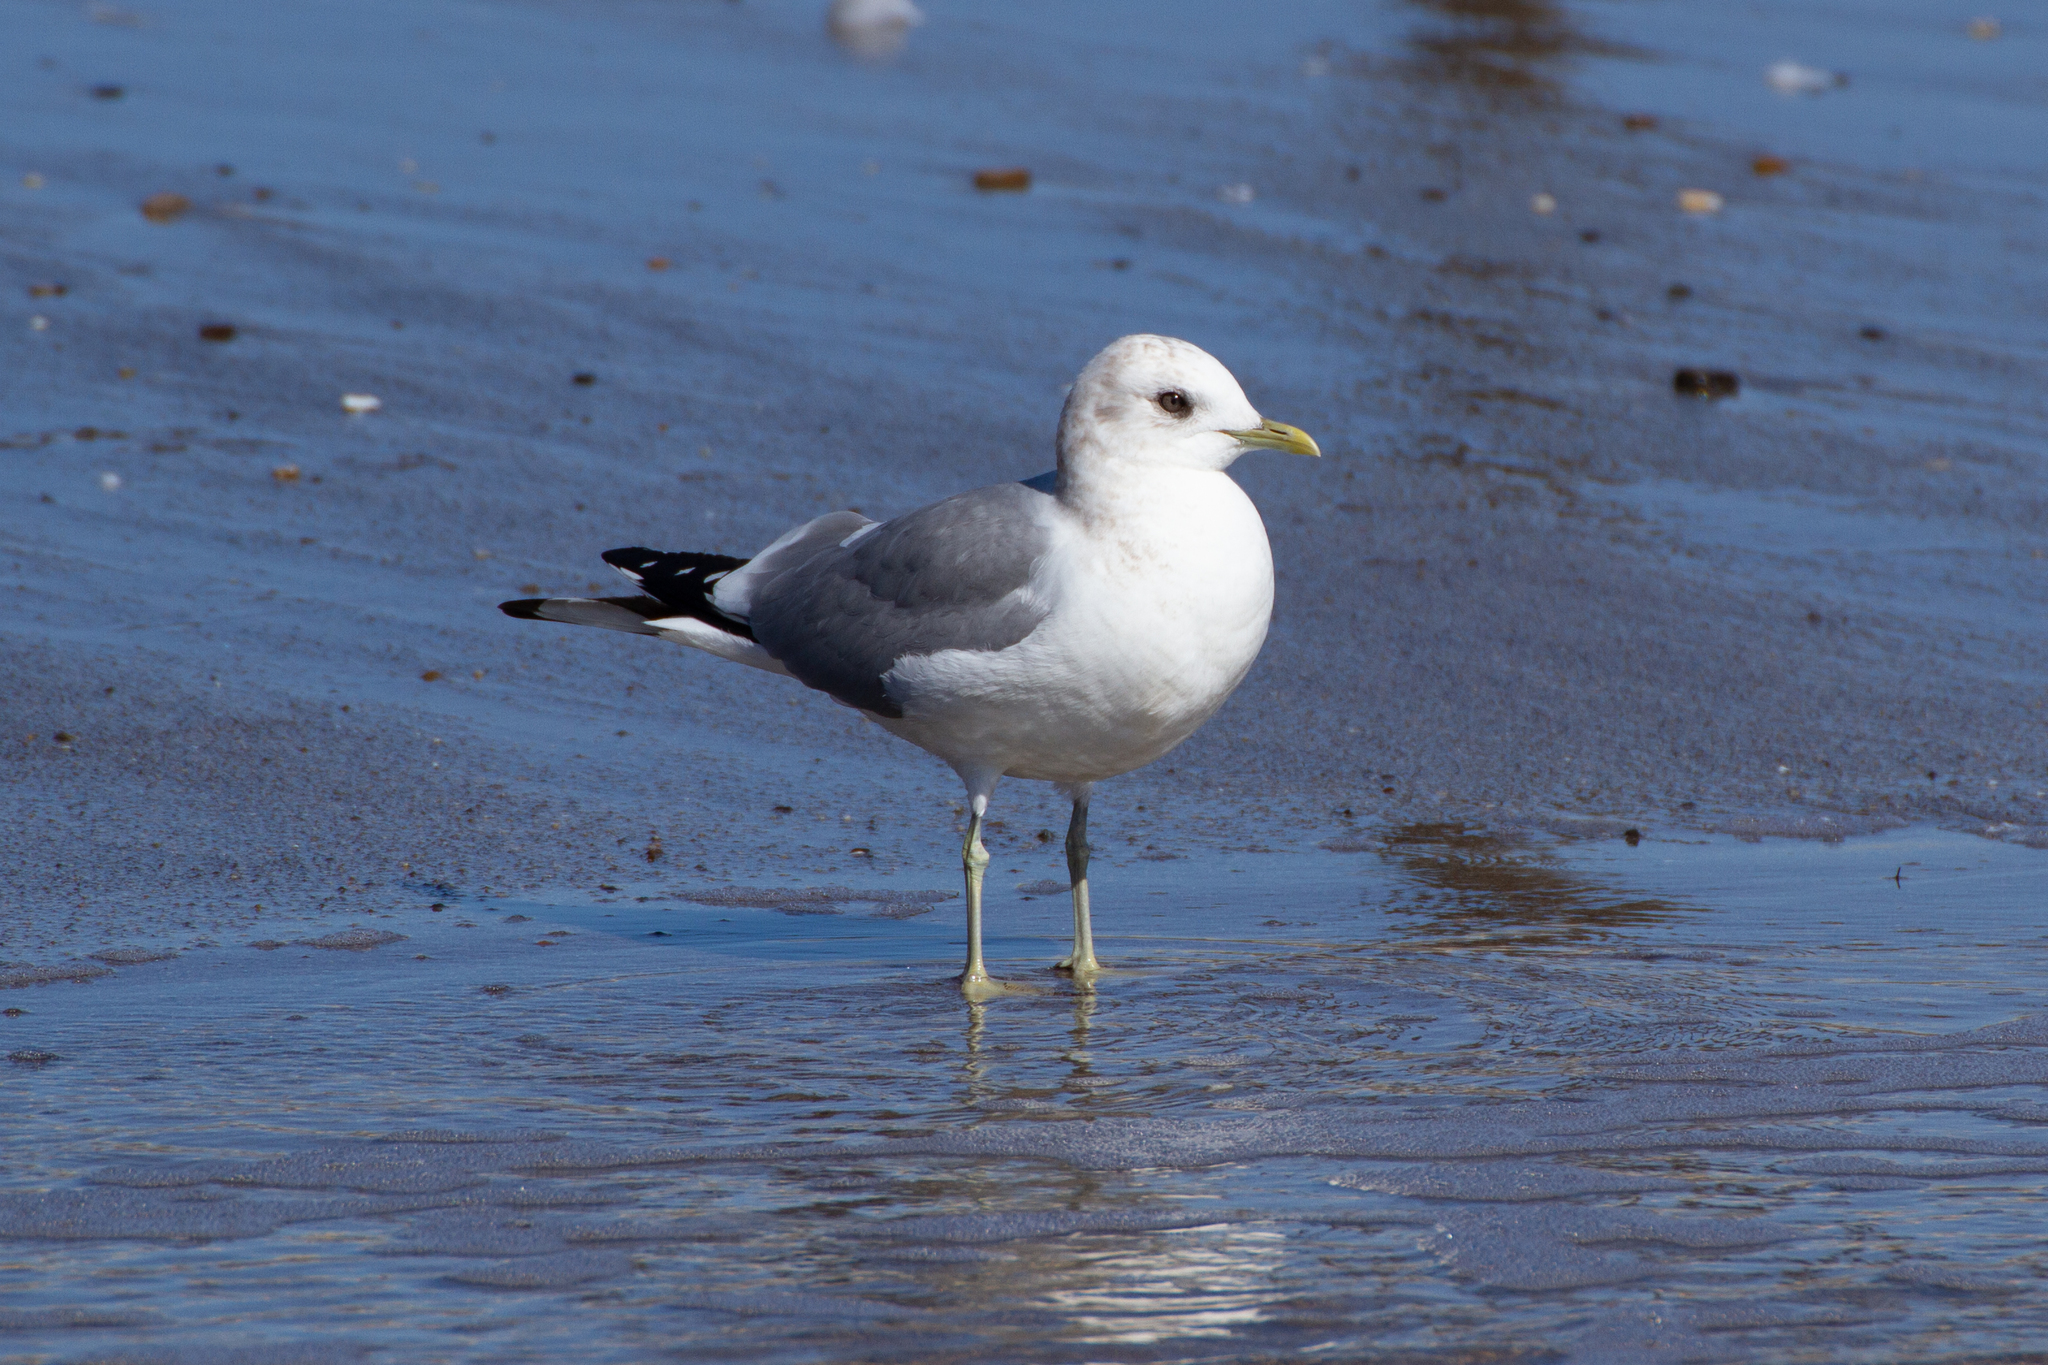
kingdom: Animalia
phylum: Chordata
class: Aves
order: Charadriiformes
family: Laridae
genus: Larus
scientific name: Larus brachyrhynchus
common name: Short-billed gull
